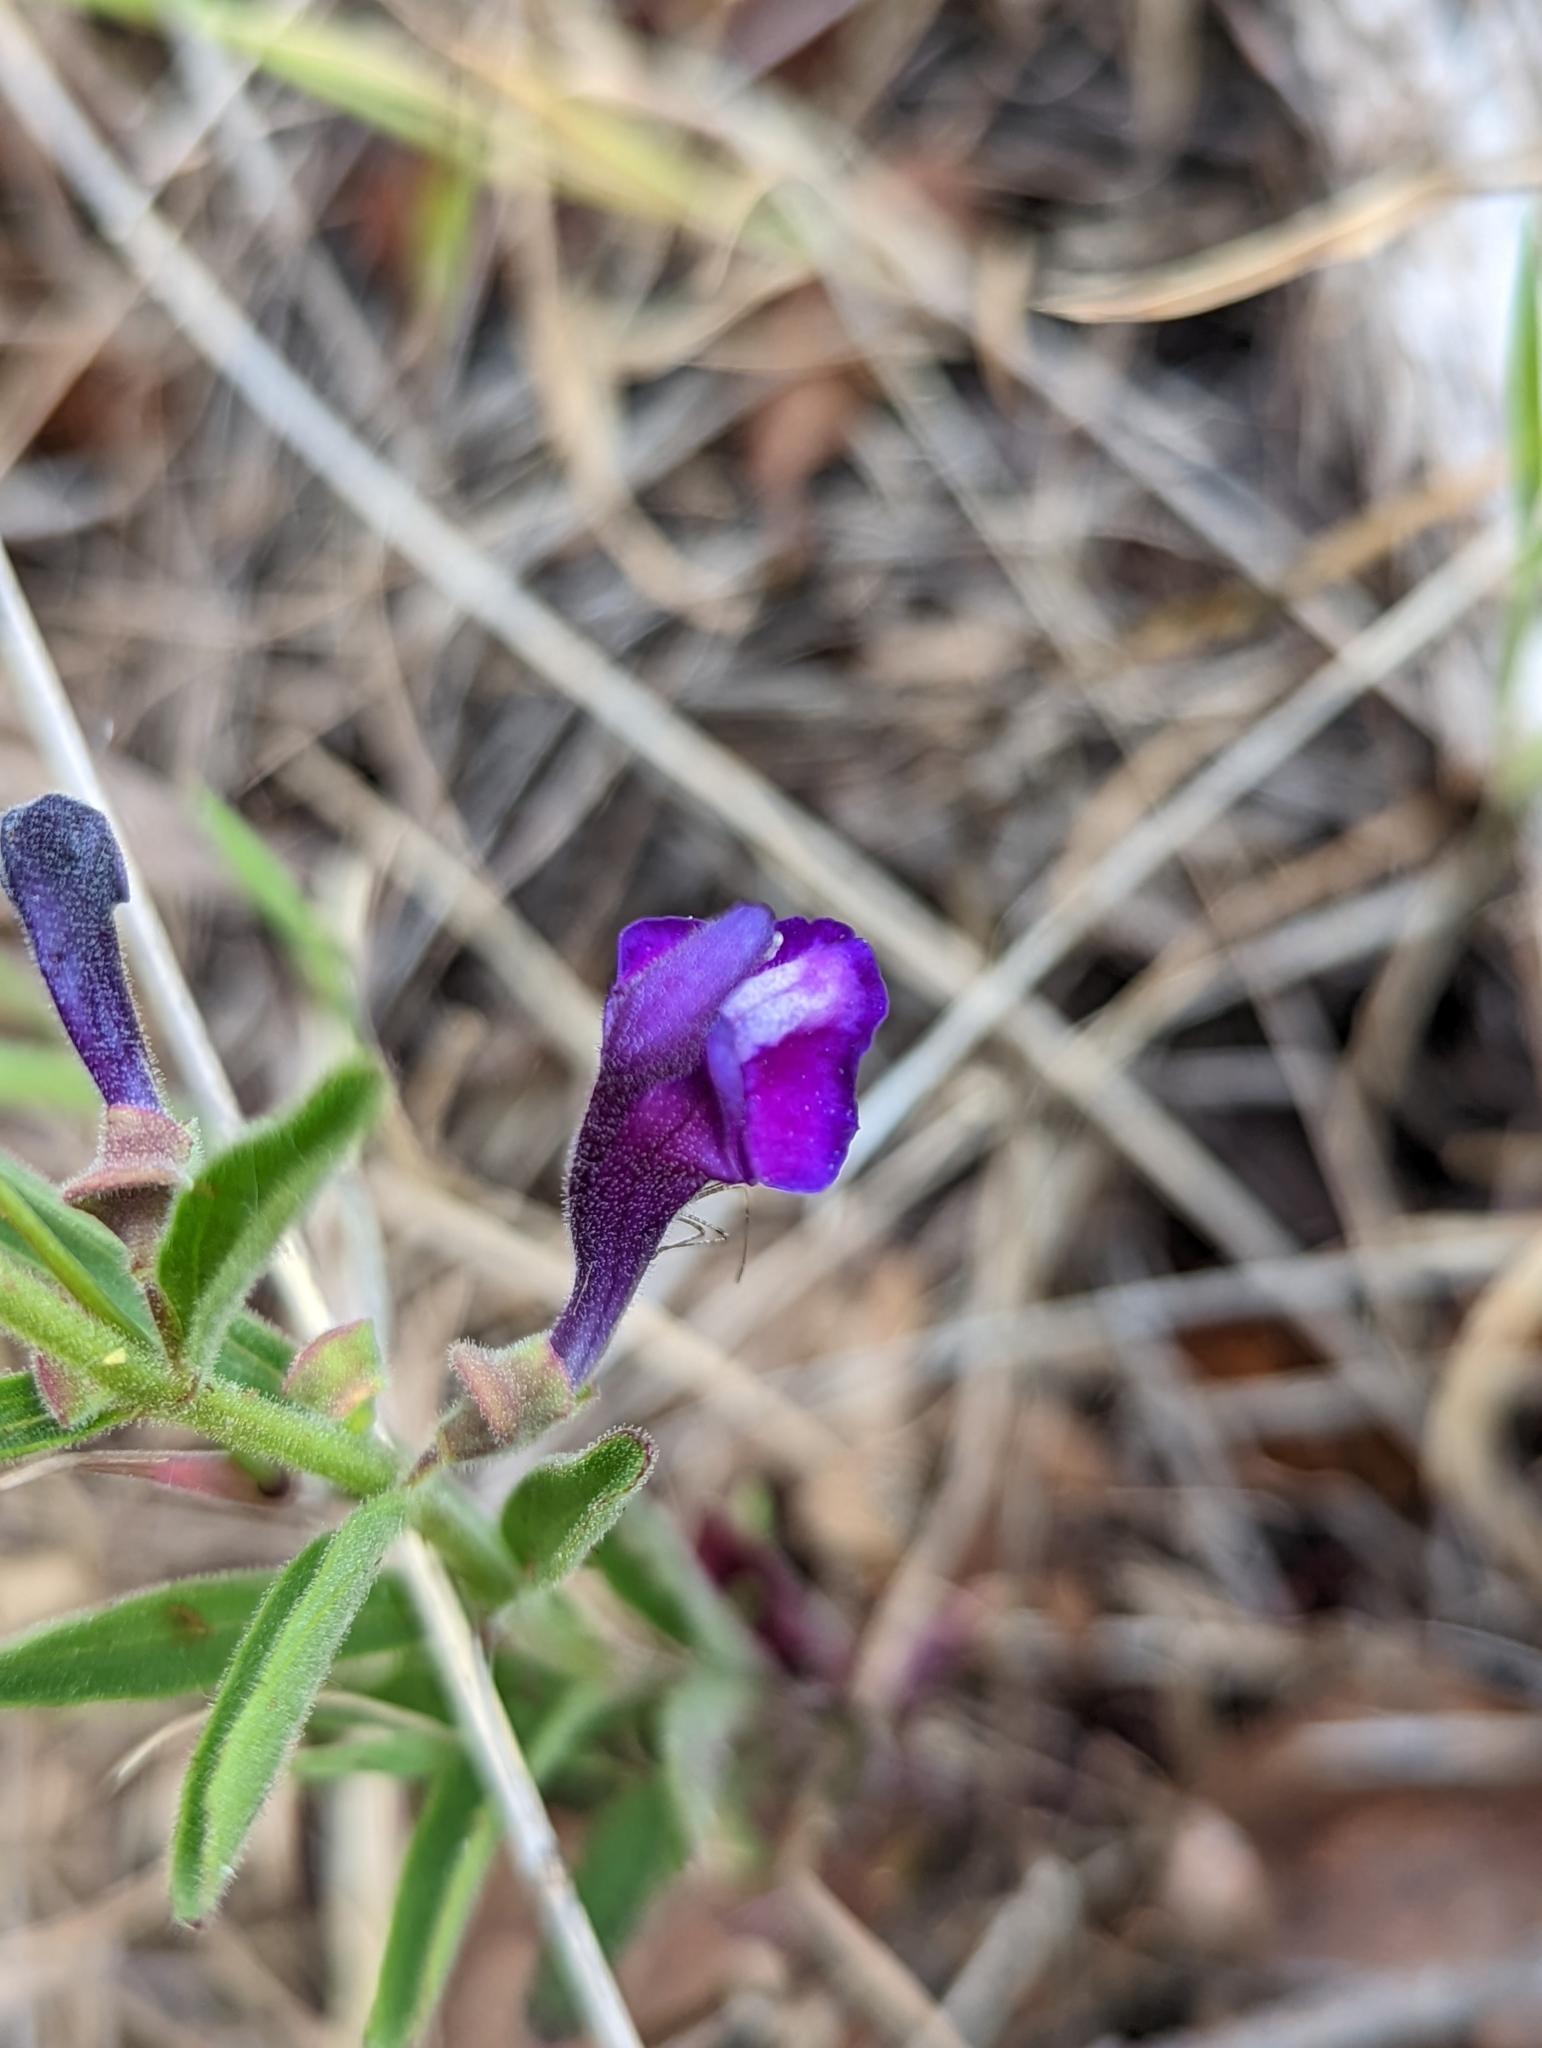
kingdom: Plantae
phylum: Tracheophyta
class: Magnoliopsida
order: Lamiales
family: Lamiaceae
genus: Scutellaria
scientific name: Scutellaria siphocampyloides
